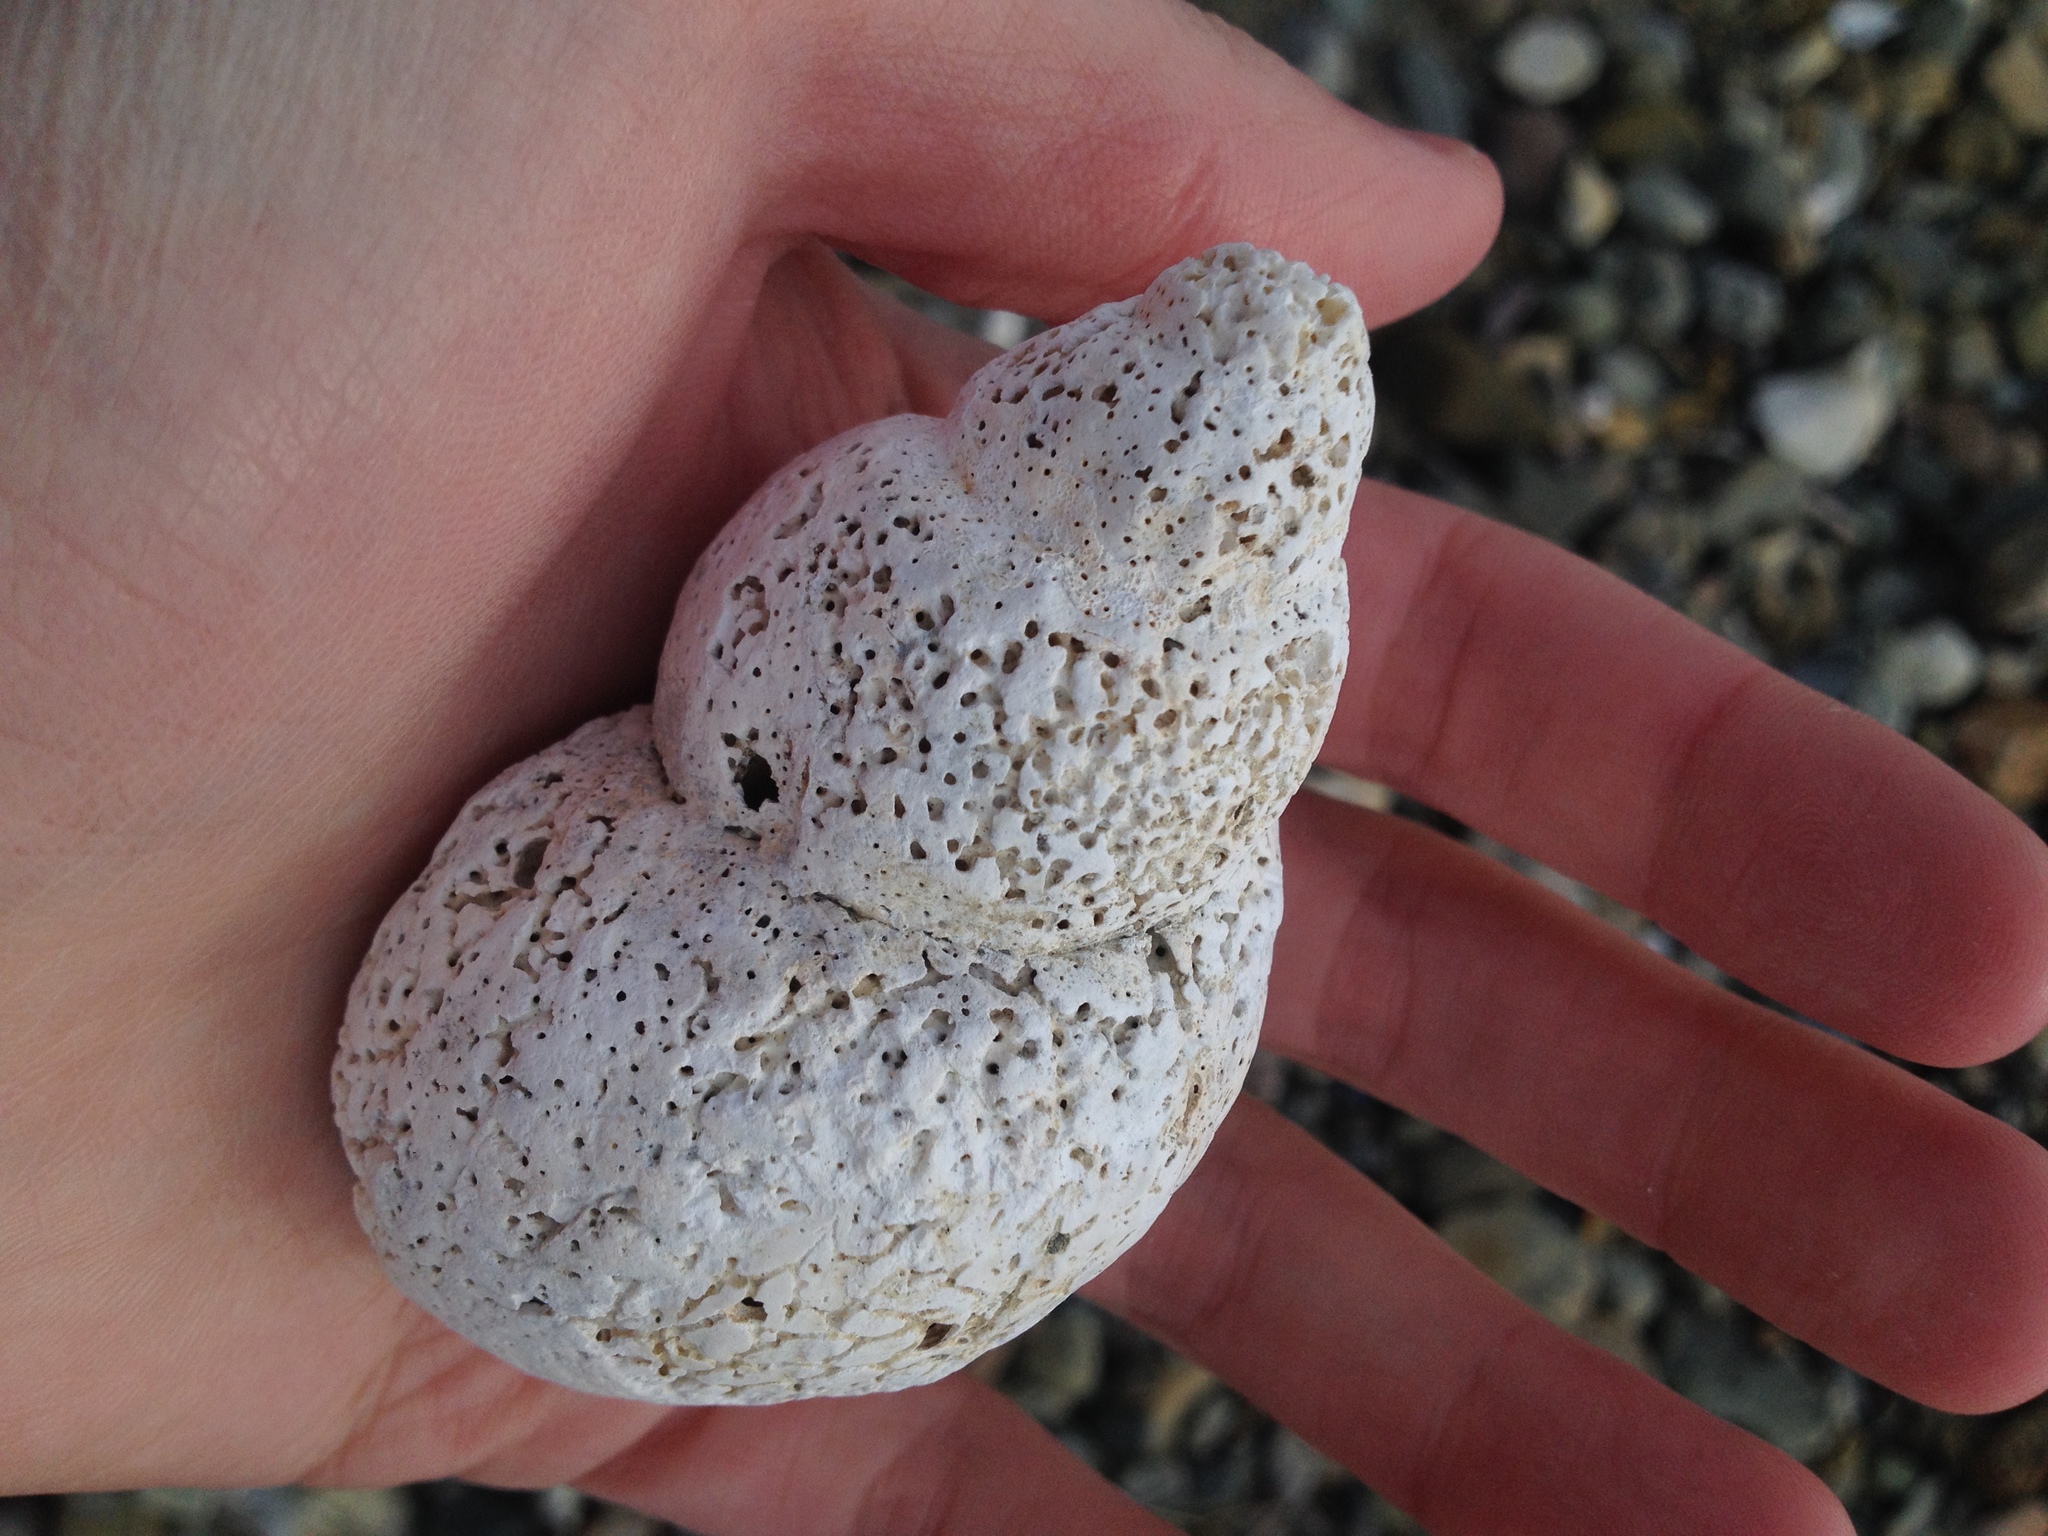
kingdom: Animalia
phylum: Mollusca
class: Gastropoda
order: Neogastropoda
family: Buccinidae
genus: Buccinum
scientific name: Buccinum undatum
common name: Common whelk
